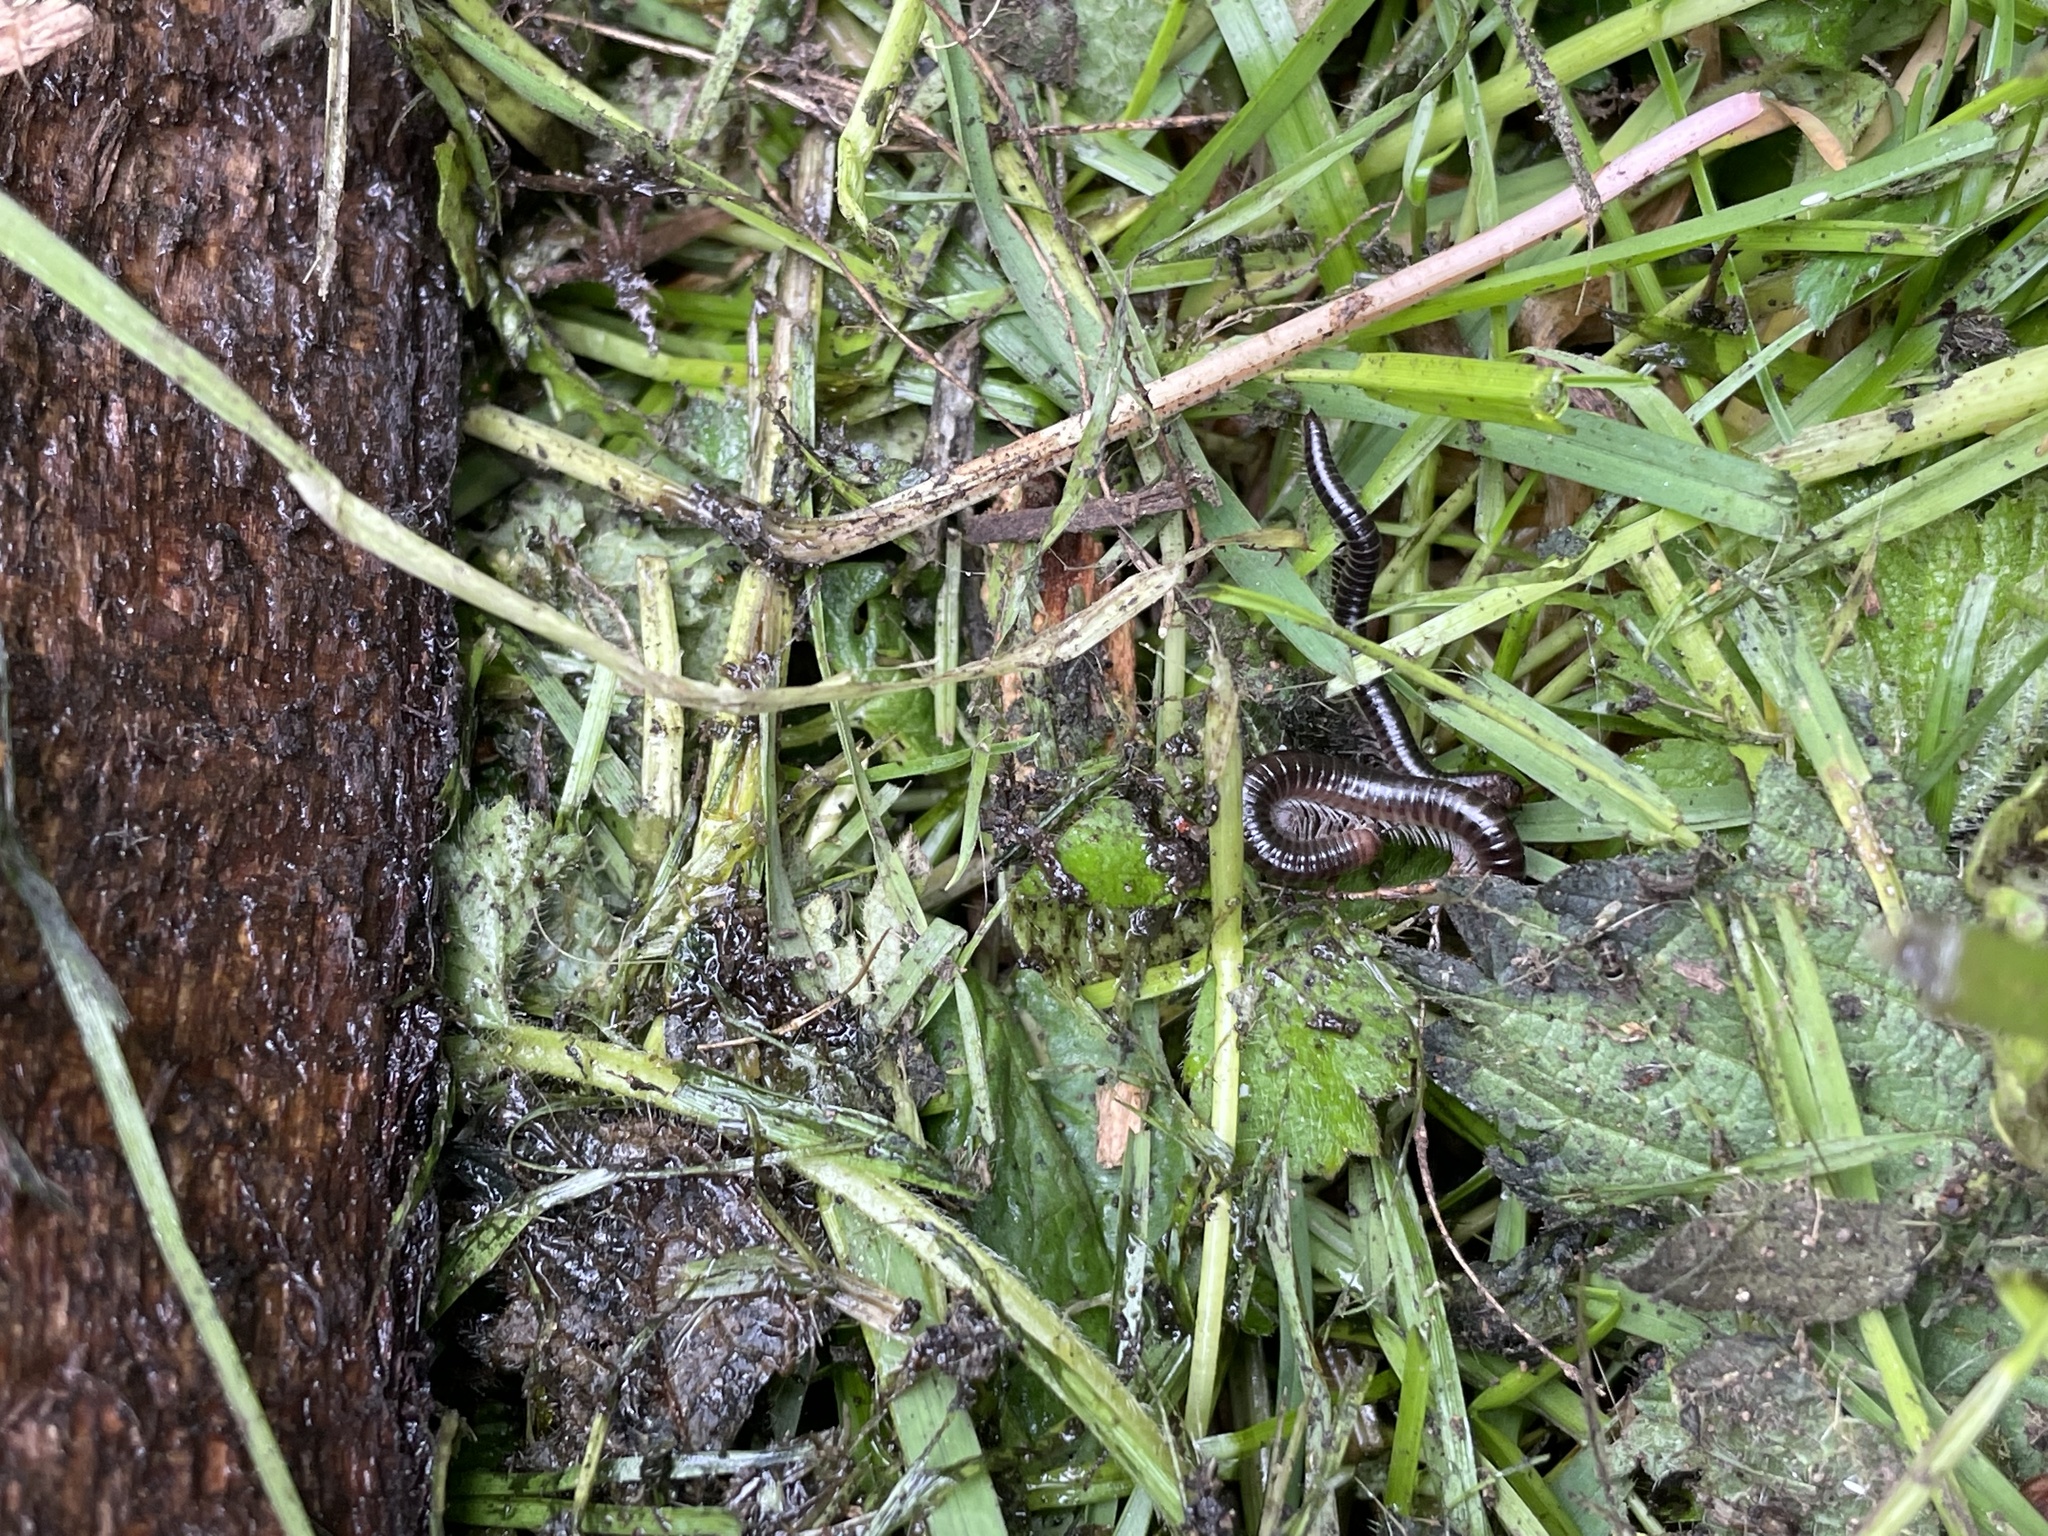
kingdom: Animalia
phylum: Arthropoda
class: Diplopoda
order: Julida
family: Julidae
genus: Tachypodoiulus
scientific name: Tachypodoiulus niger
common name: White-legged snake millipede
